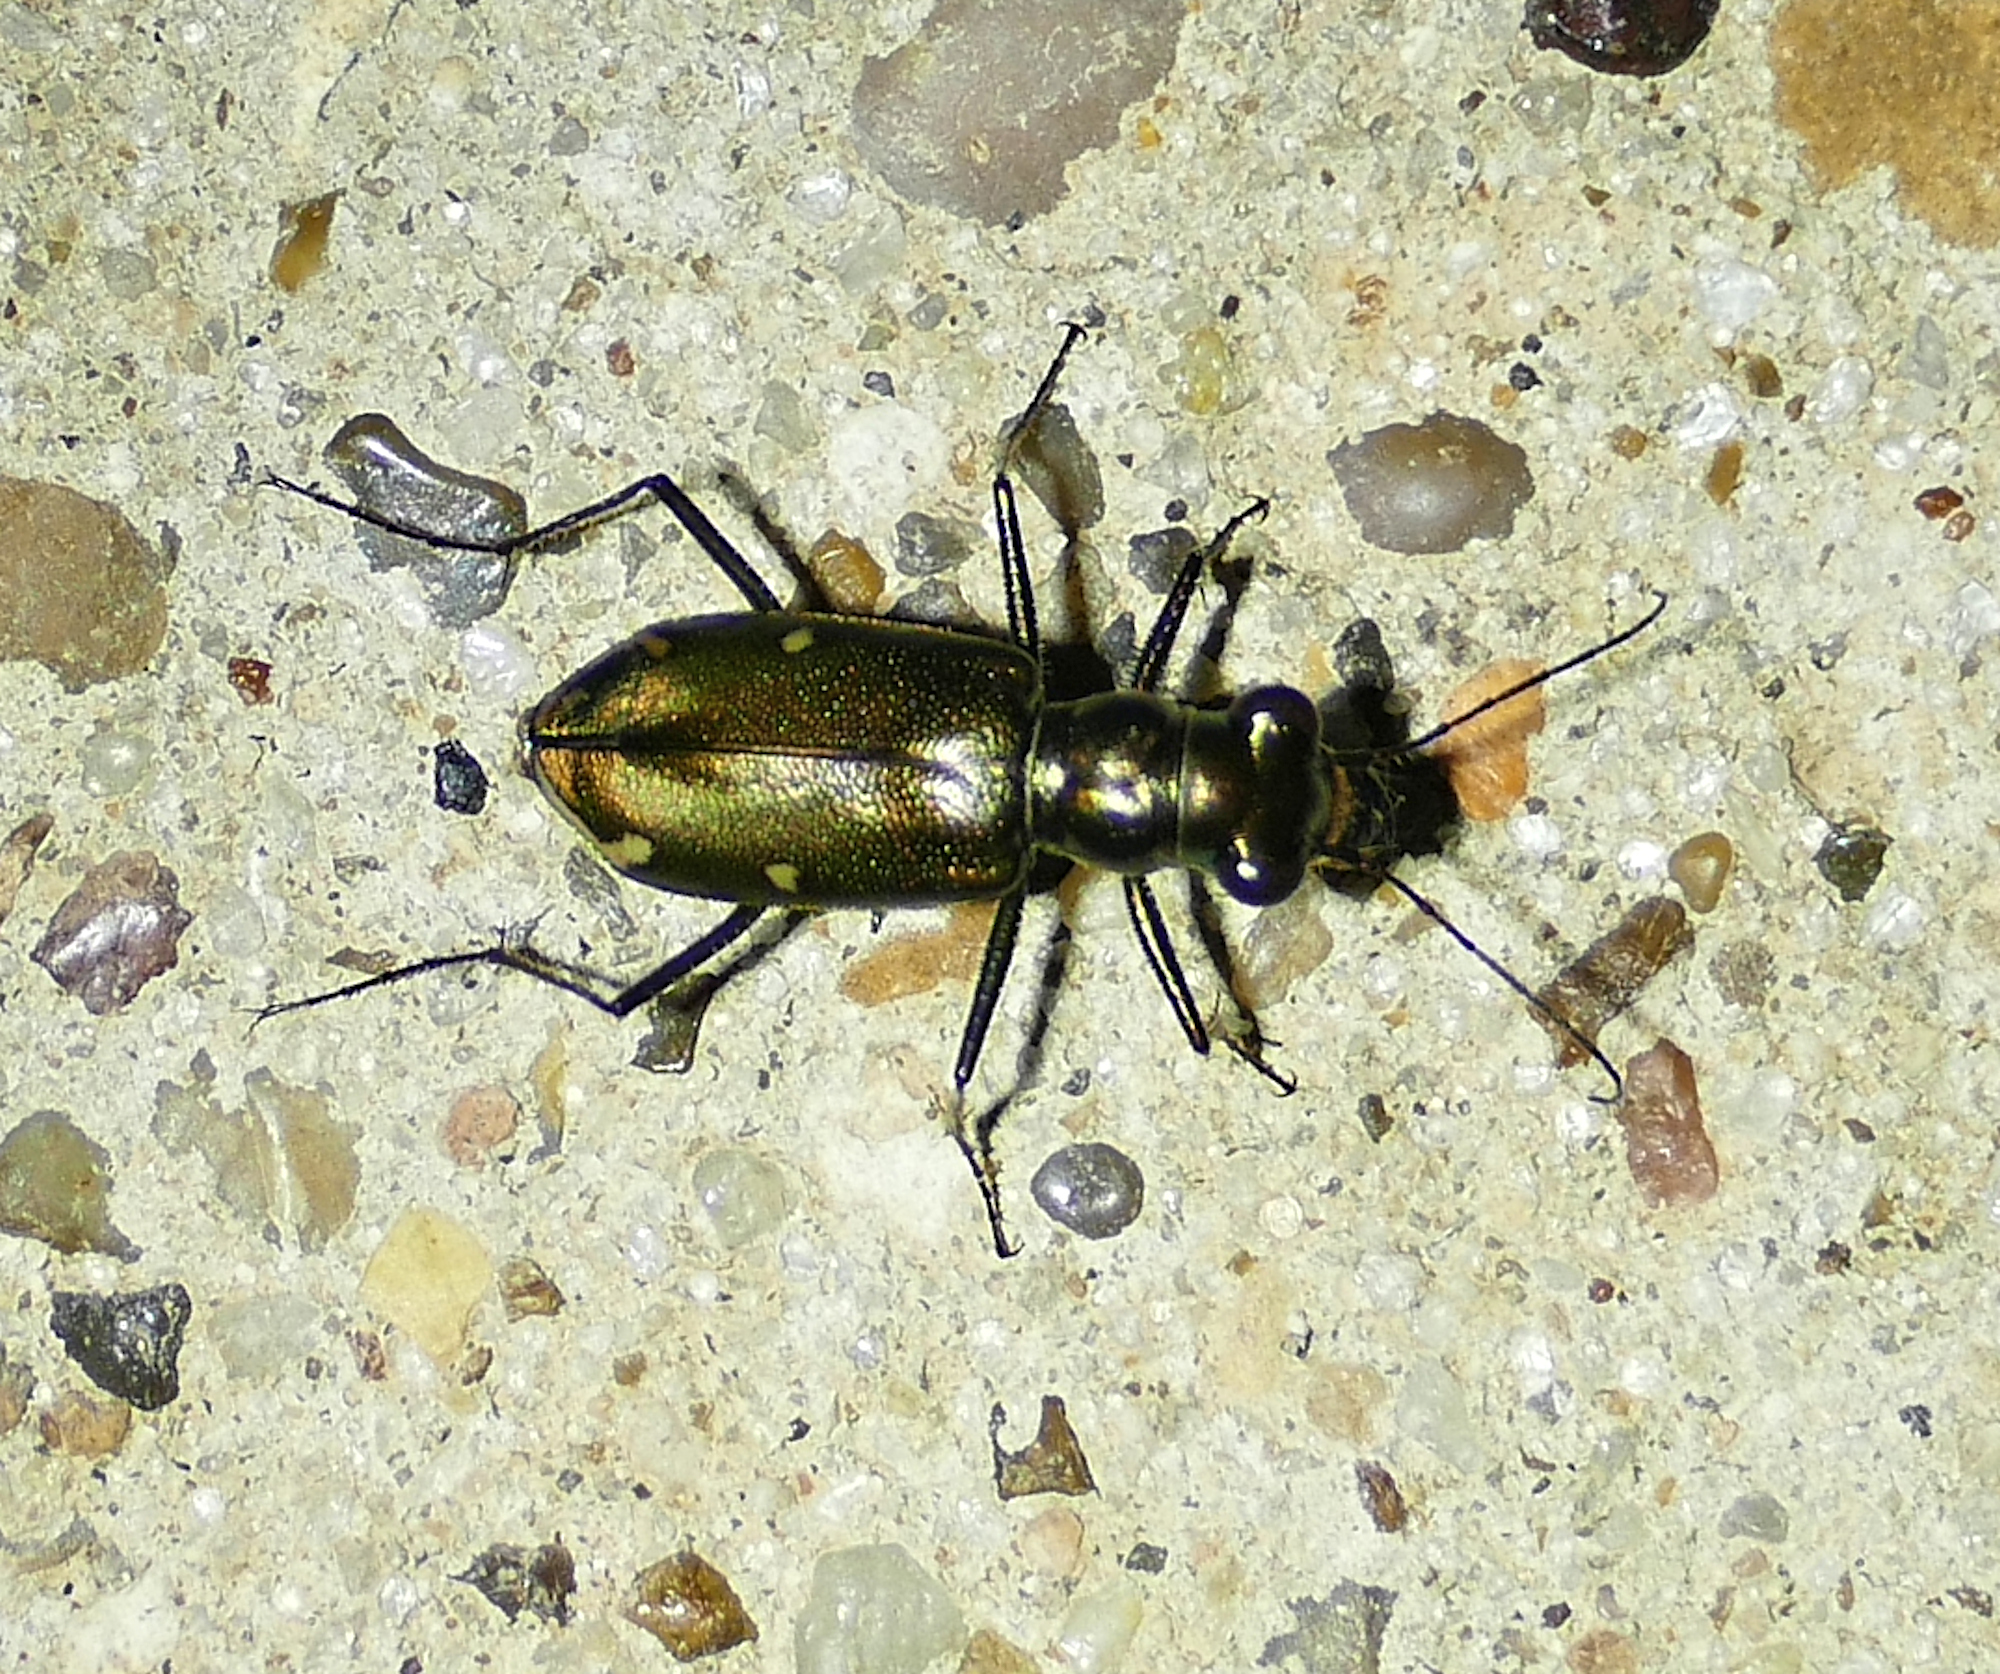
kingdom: Animalia
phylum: Arthropoda
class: Insecta
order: Coleoptera
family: Carabidae
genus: Eunota
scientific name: Eunota severa
